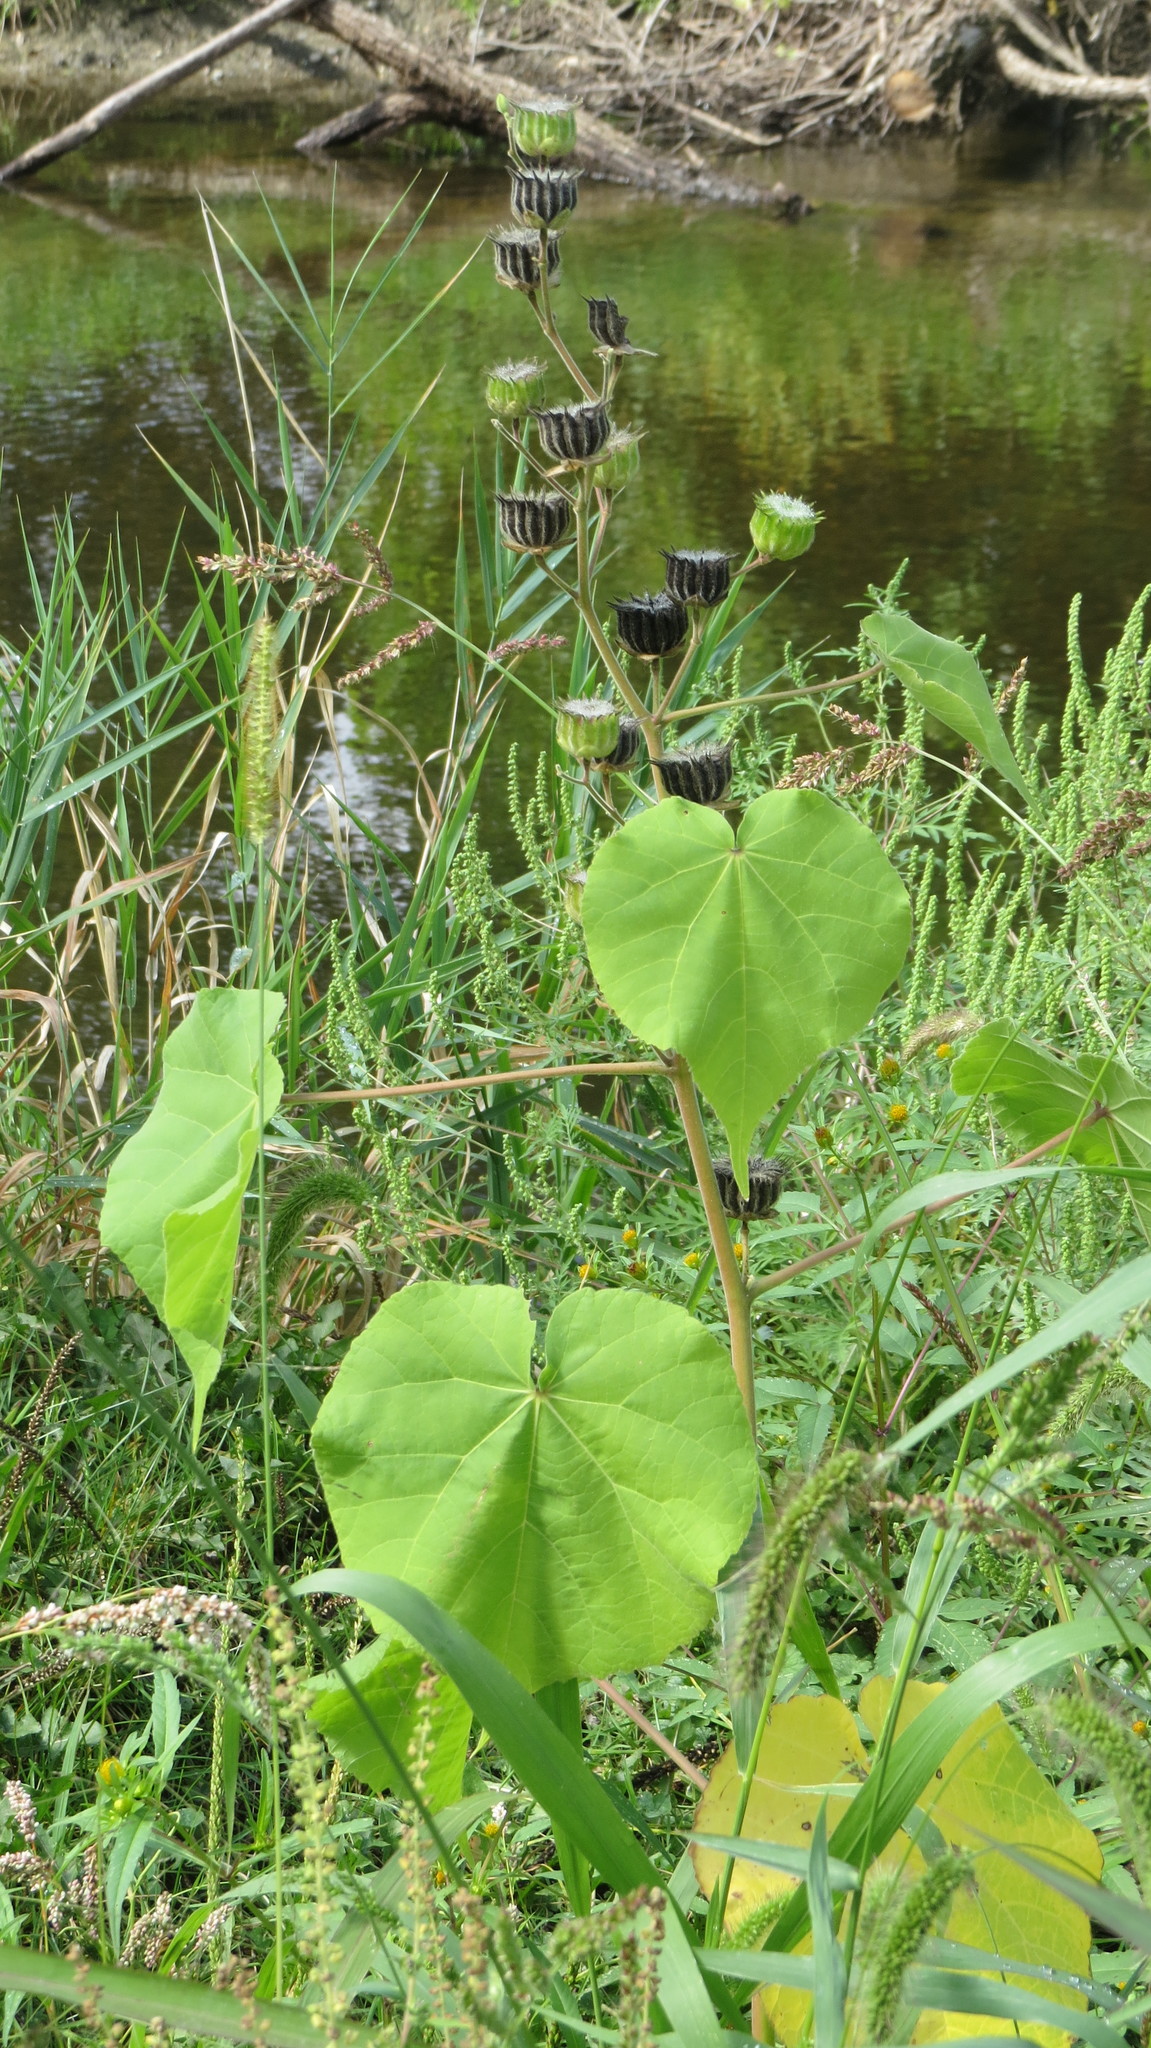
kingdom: Plantae
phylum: Tracheophyta
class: Magnoliopsida
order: Malvales
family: Malvaceae
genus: Abutilon
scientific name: Abutilon theophrasti
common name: Velvetleaf
